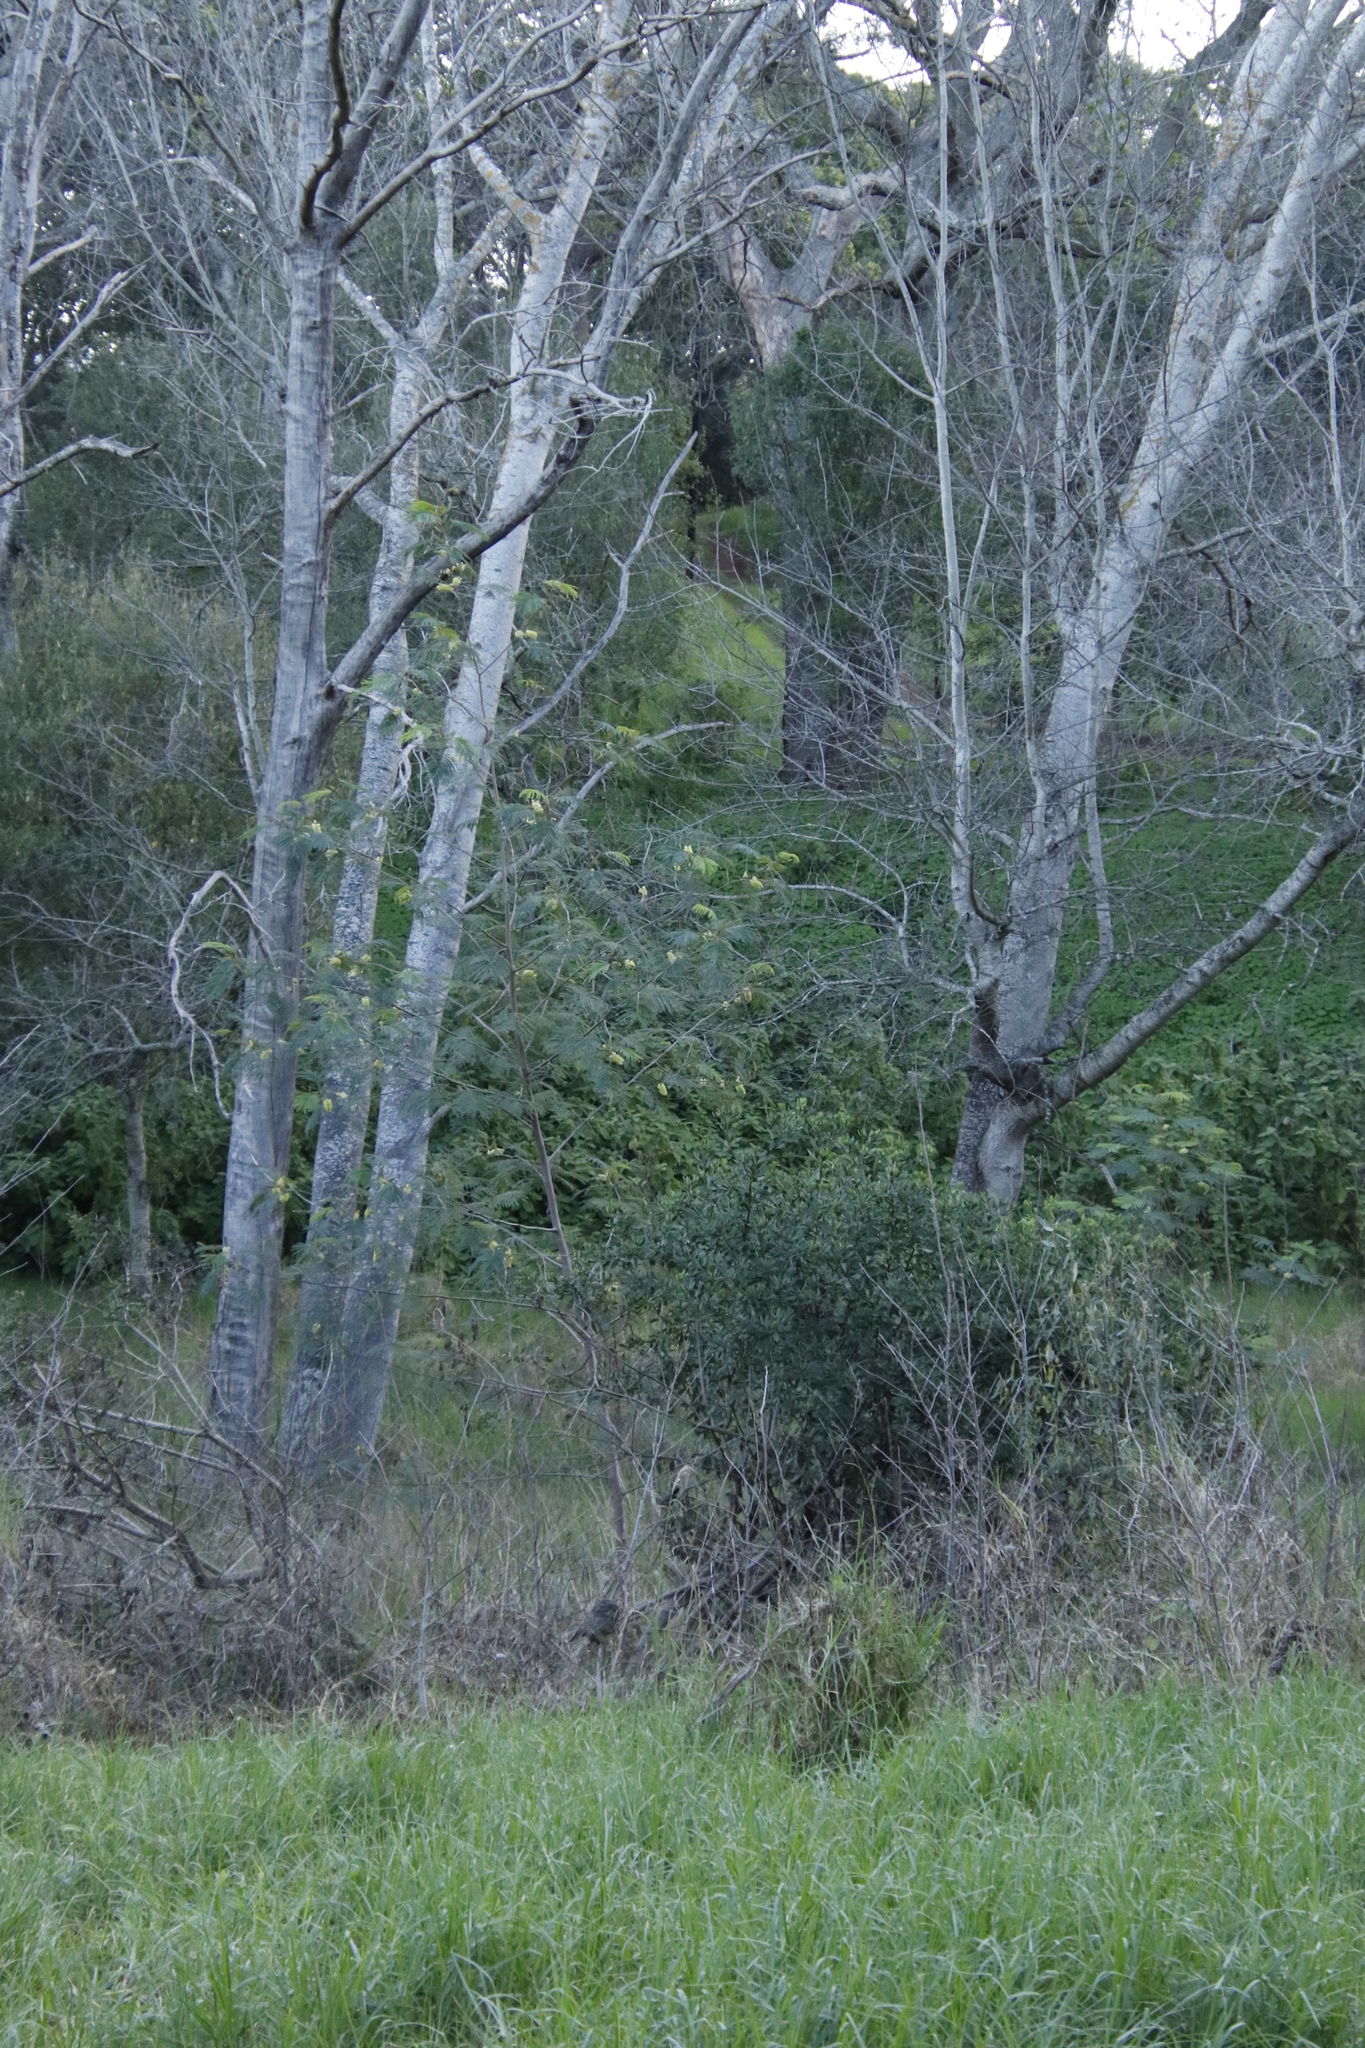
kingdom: Plantae
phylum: Tracheophyta
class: Magnoliopsida
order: Fabales
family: Fabaceae
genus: Paraserianthes
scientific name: Paraserianthes lophantha
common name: Plume albizia
